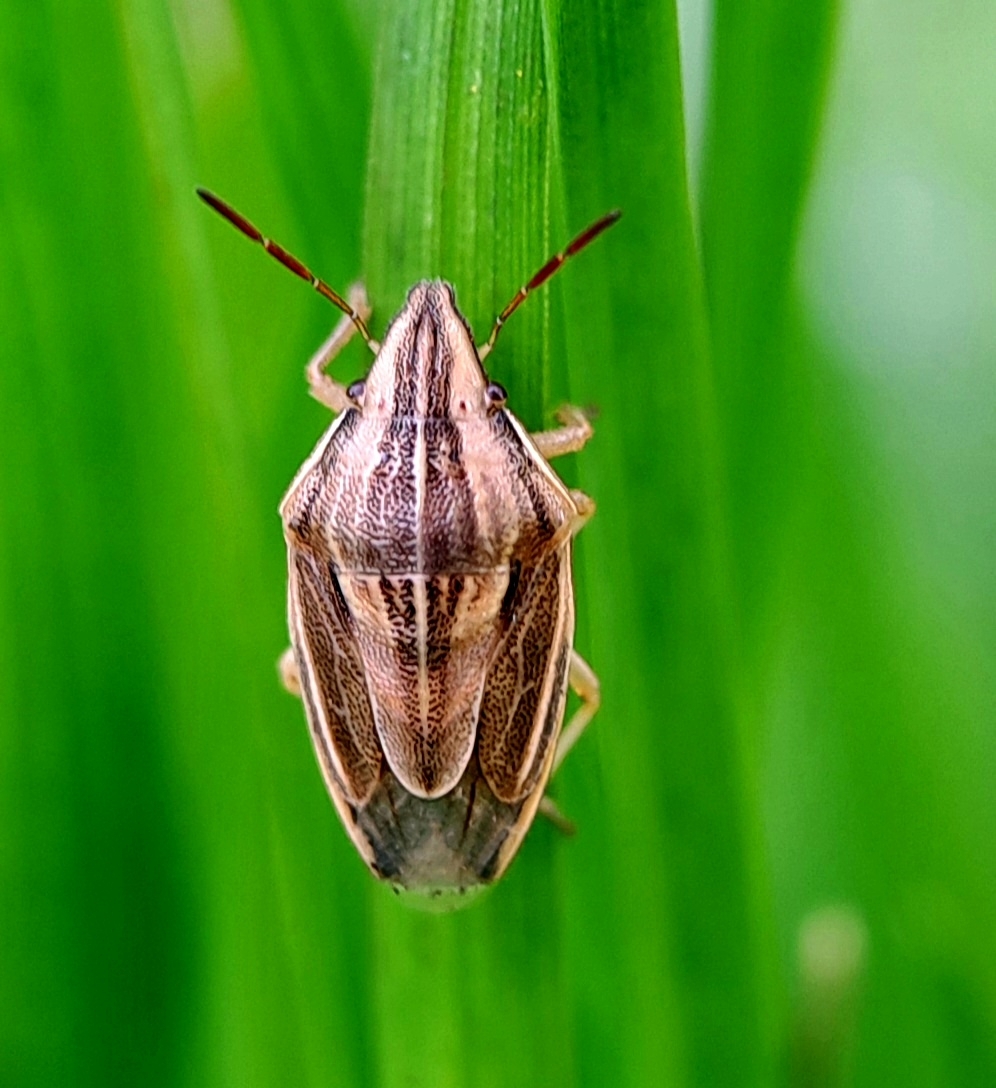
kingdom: Animalia
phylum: Arthropoda
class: Insecta
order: Hemiptera
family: Pentatomidae
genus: Aelia
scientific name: Aelia acuminata
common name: Bishop's mitre
